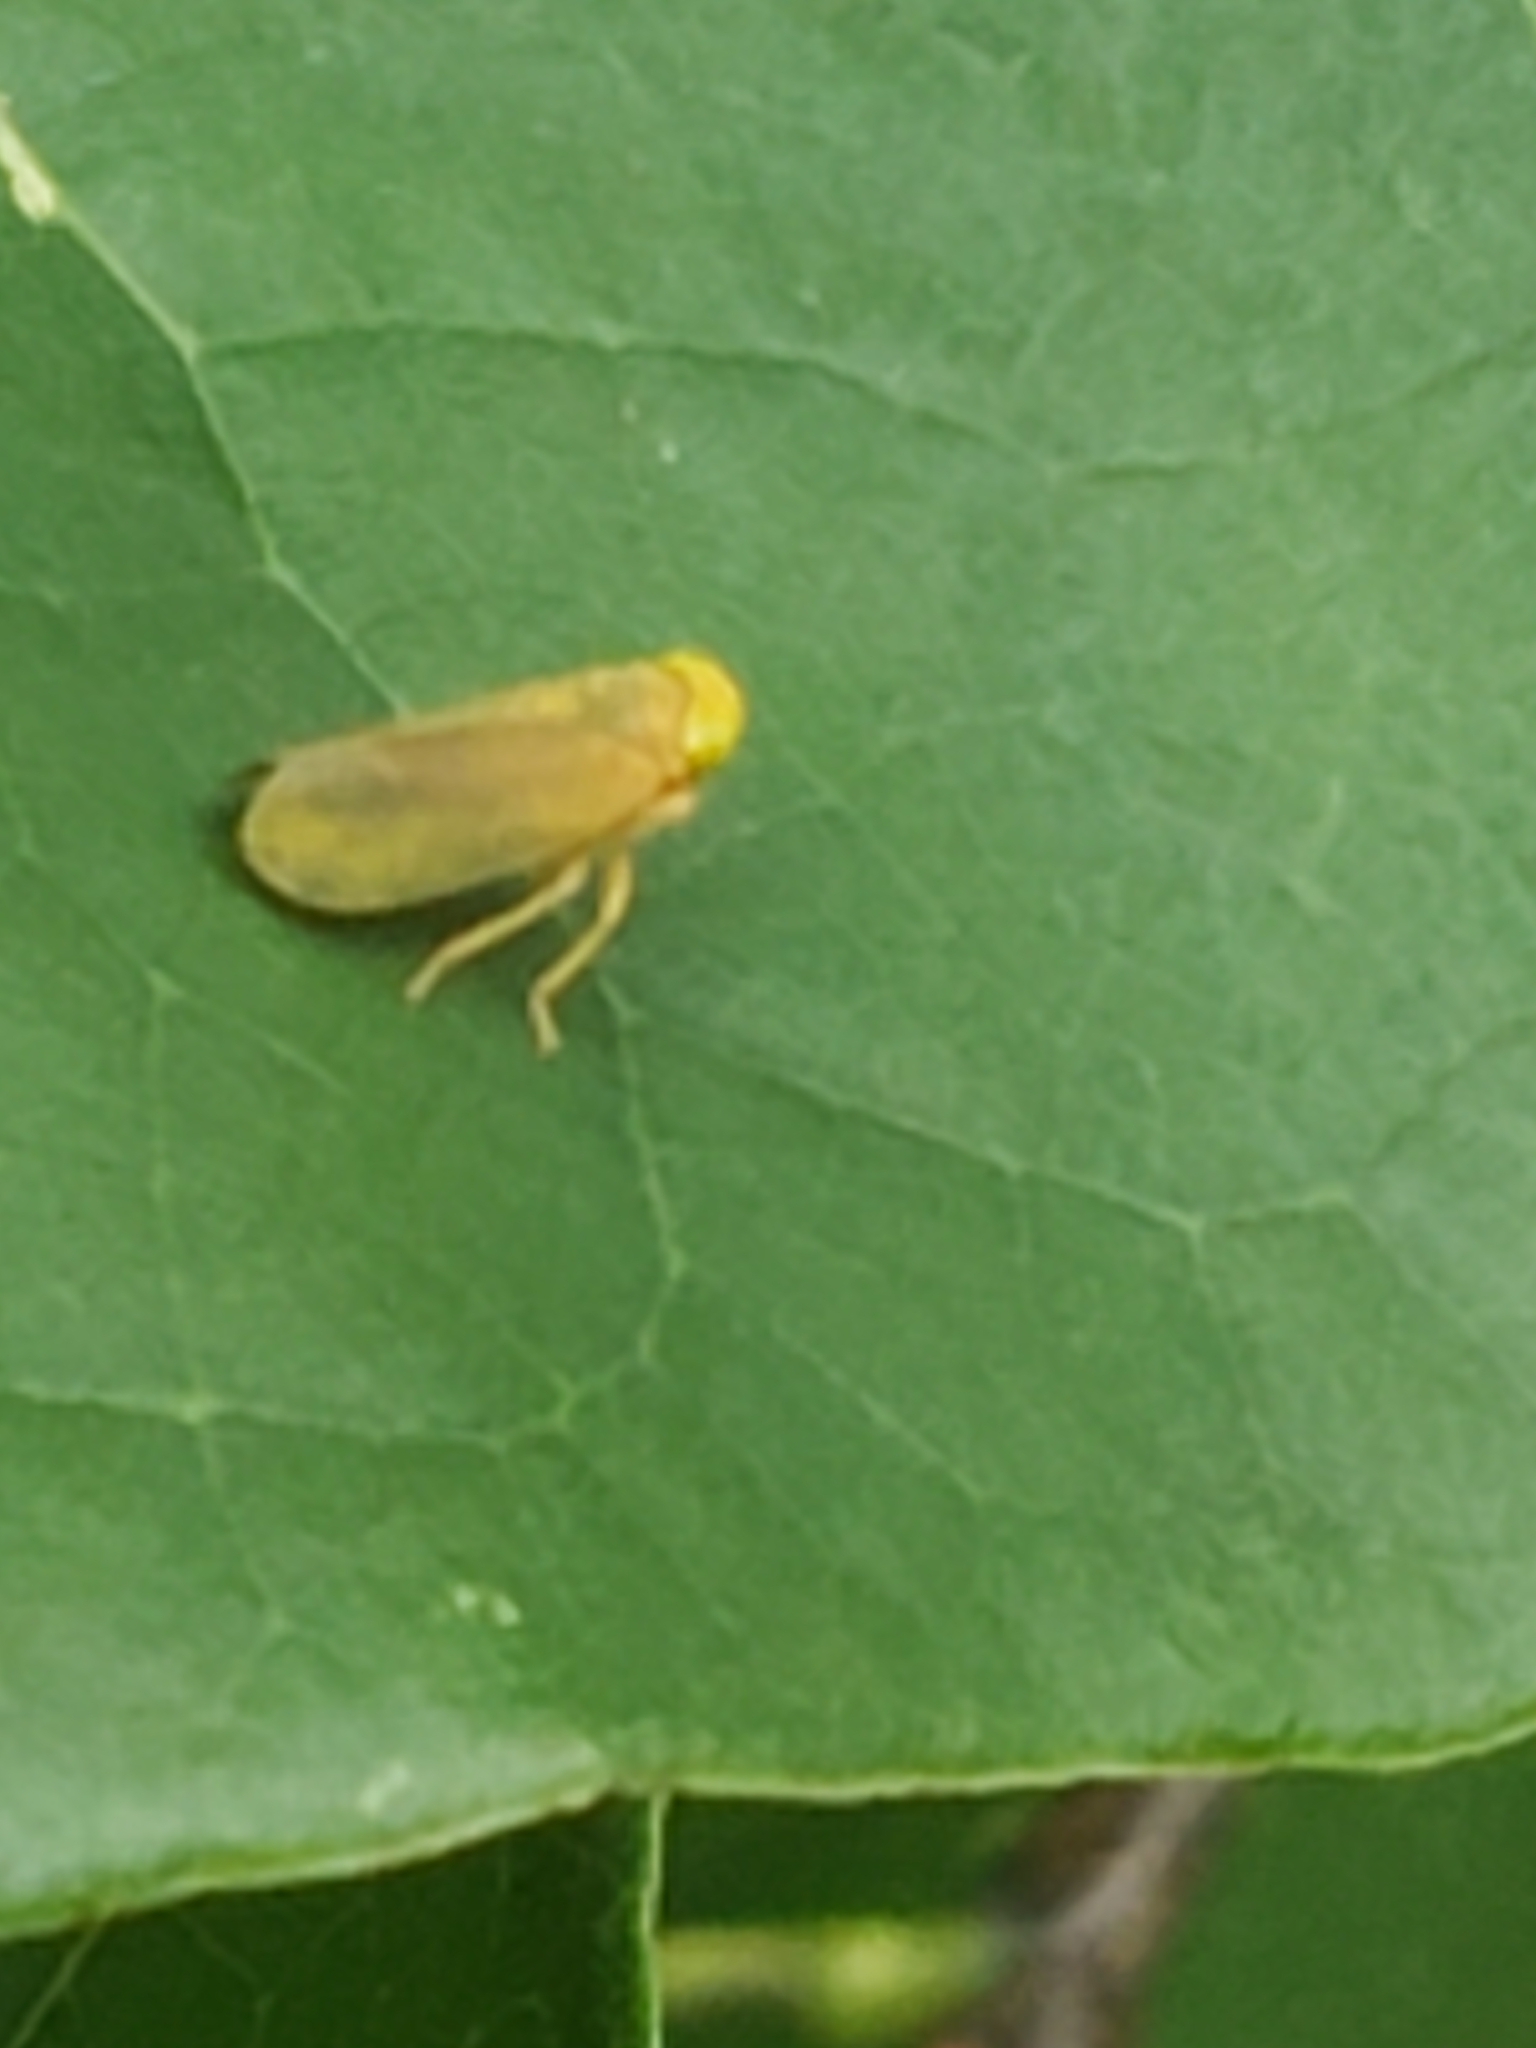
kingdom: Animalia
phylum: Arthropoda
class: Insecta
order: Hemiptera
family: Cicadellidae
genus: Jikradia
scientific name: Jikradia olitoria
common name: Coppery leafhopper
